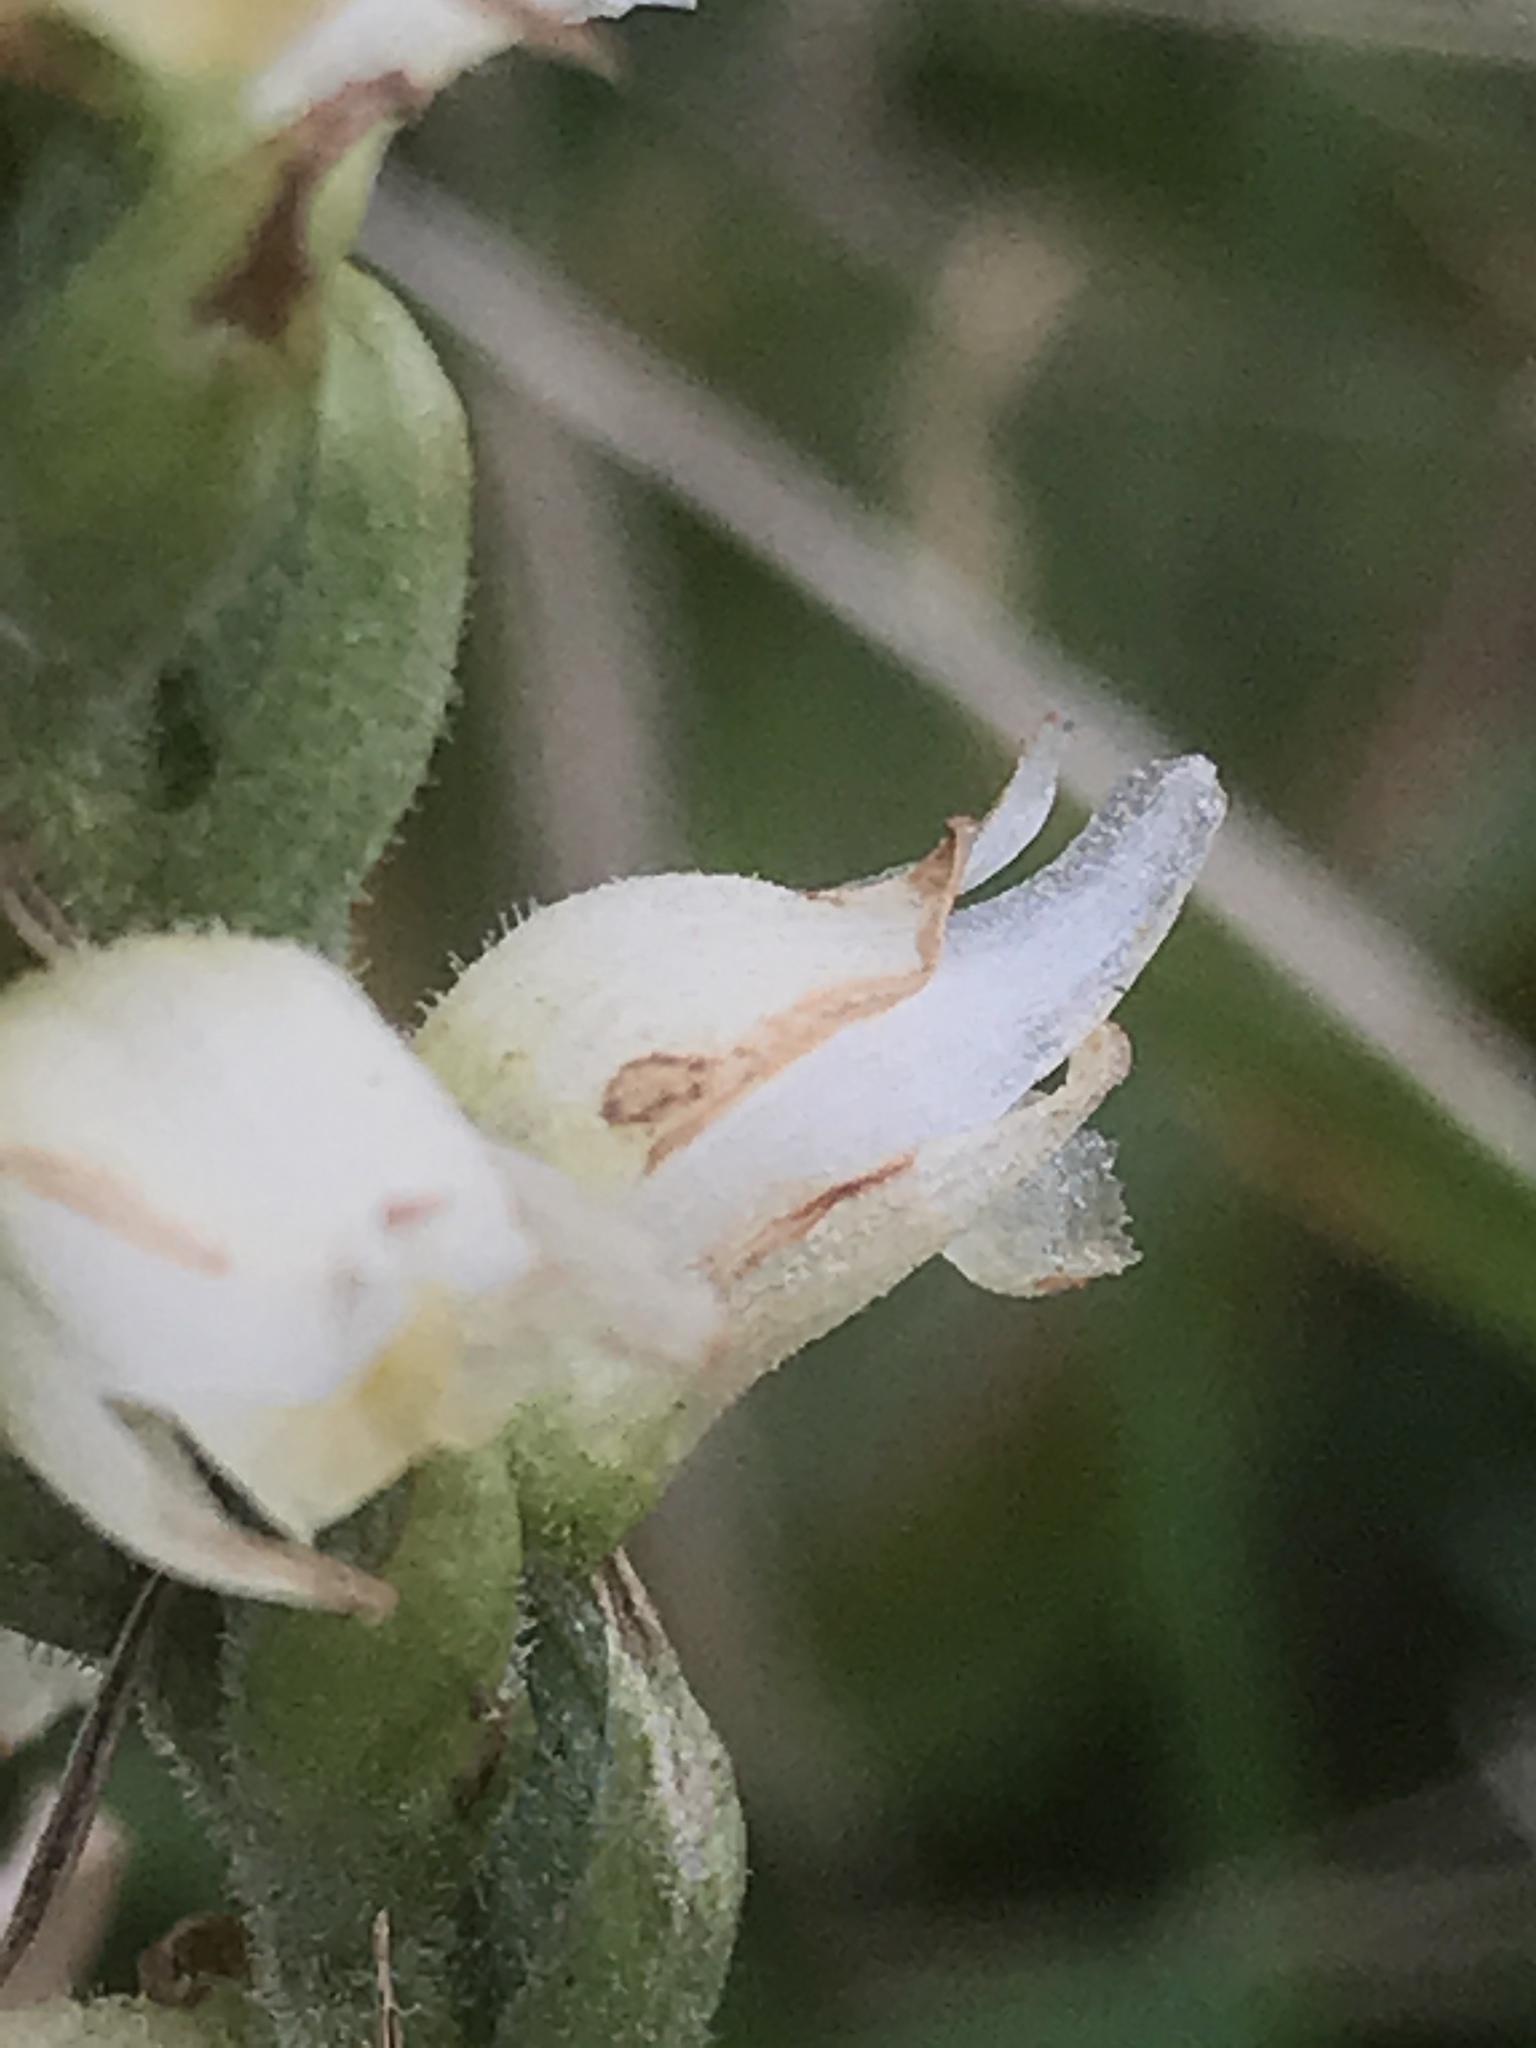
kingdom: Plantae
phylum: Tracheophyta
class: Liliopsida
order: Asparagales
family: Orchidaceae
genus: Spiranthes
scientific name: Spiranthes ochroleuca
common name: Yellow ladies'-tresses
